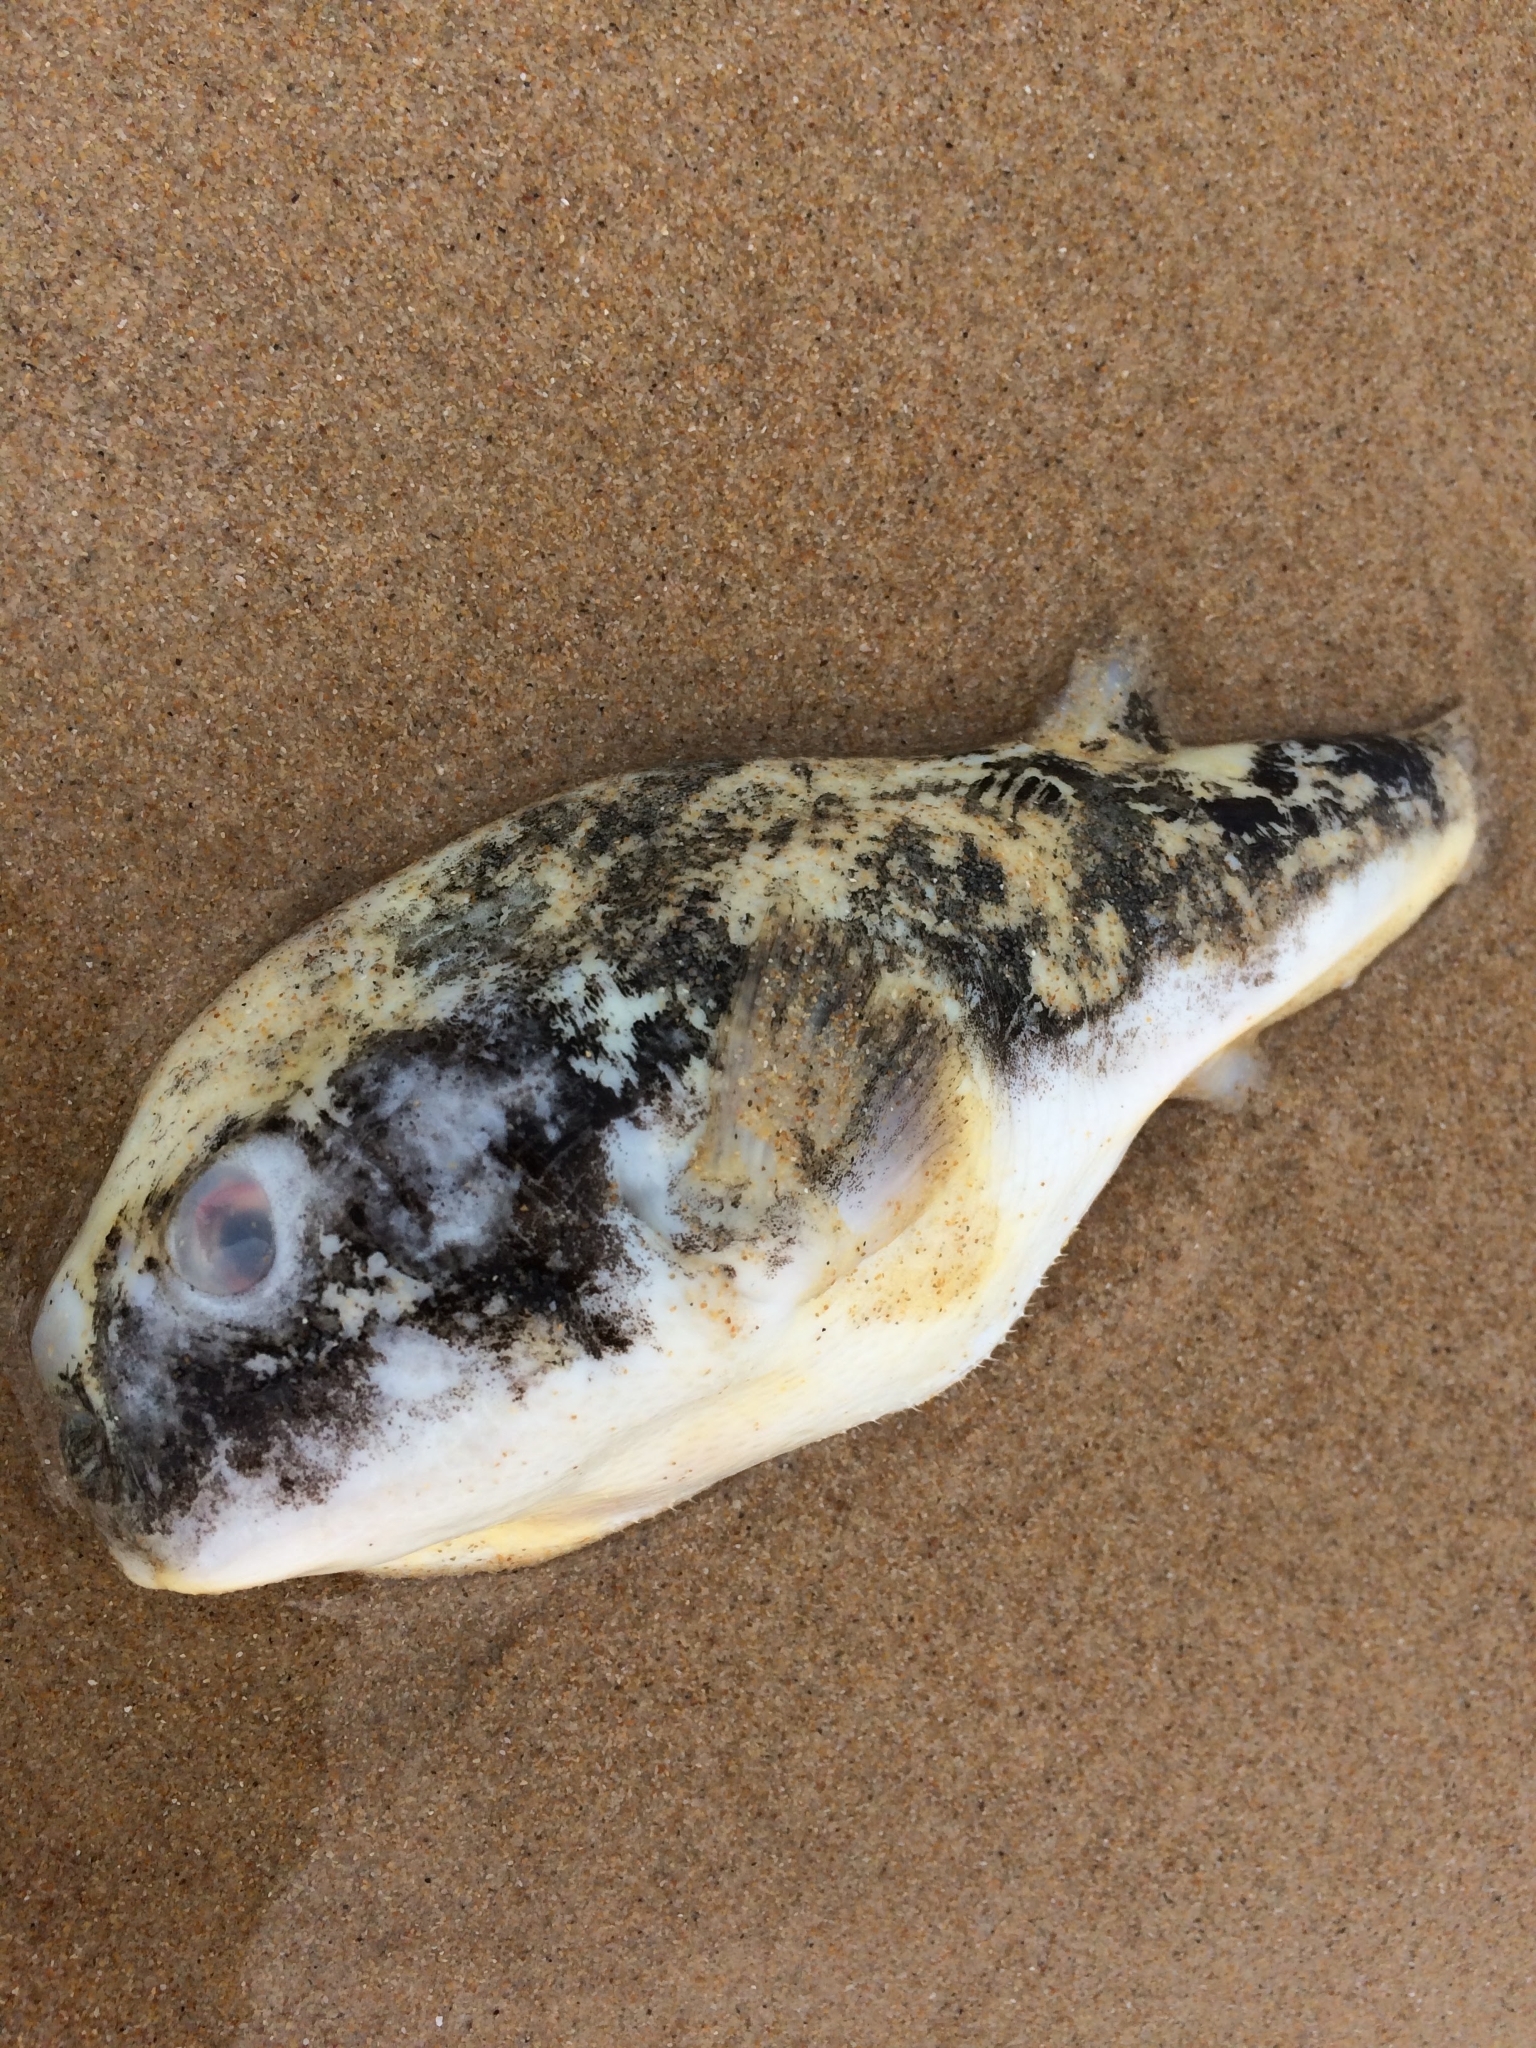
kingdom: Animalia
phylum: Chordata
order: Tetraodontiformes
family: Tetraodontidae
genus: Amblyrhynchote
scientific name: Amblyrhynchote honckenii
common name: Evileye blaasop
